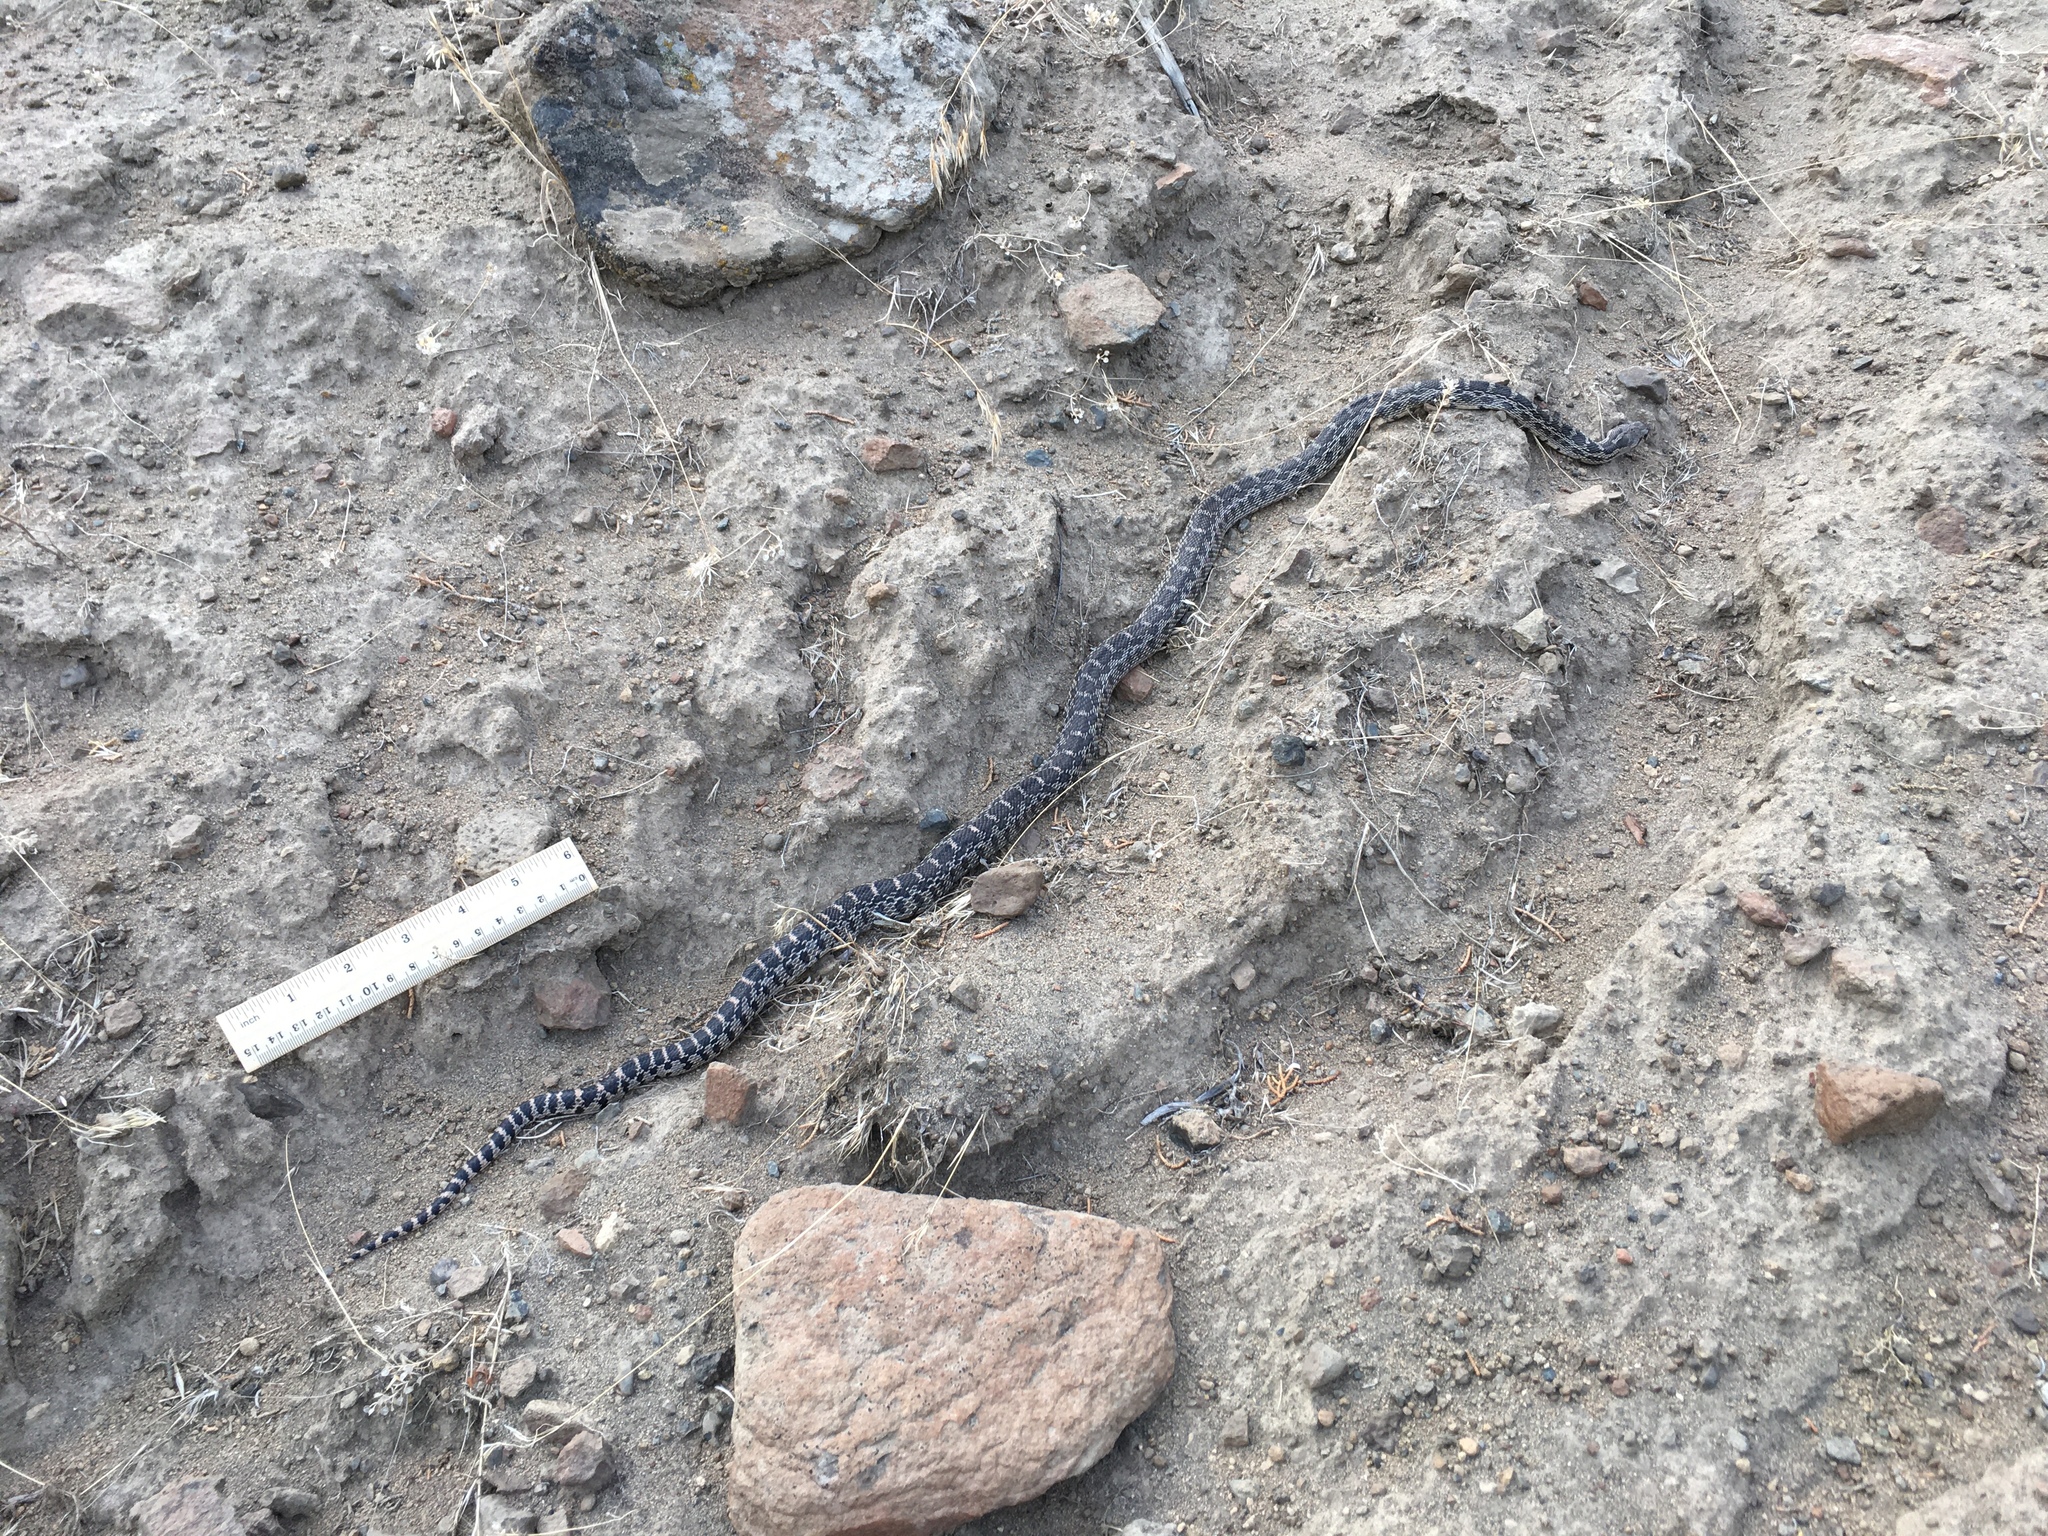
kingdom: Animalia
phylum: Chordata
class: Squamata
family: Colubridae
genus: Pituophis
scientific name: Pituophis catenifer
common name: Gopher snake
